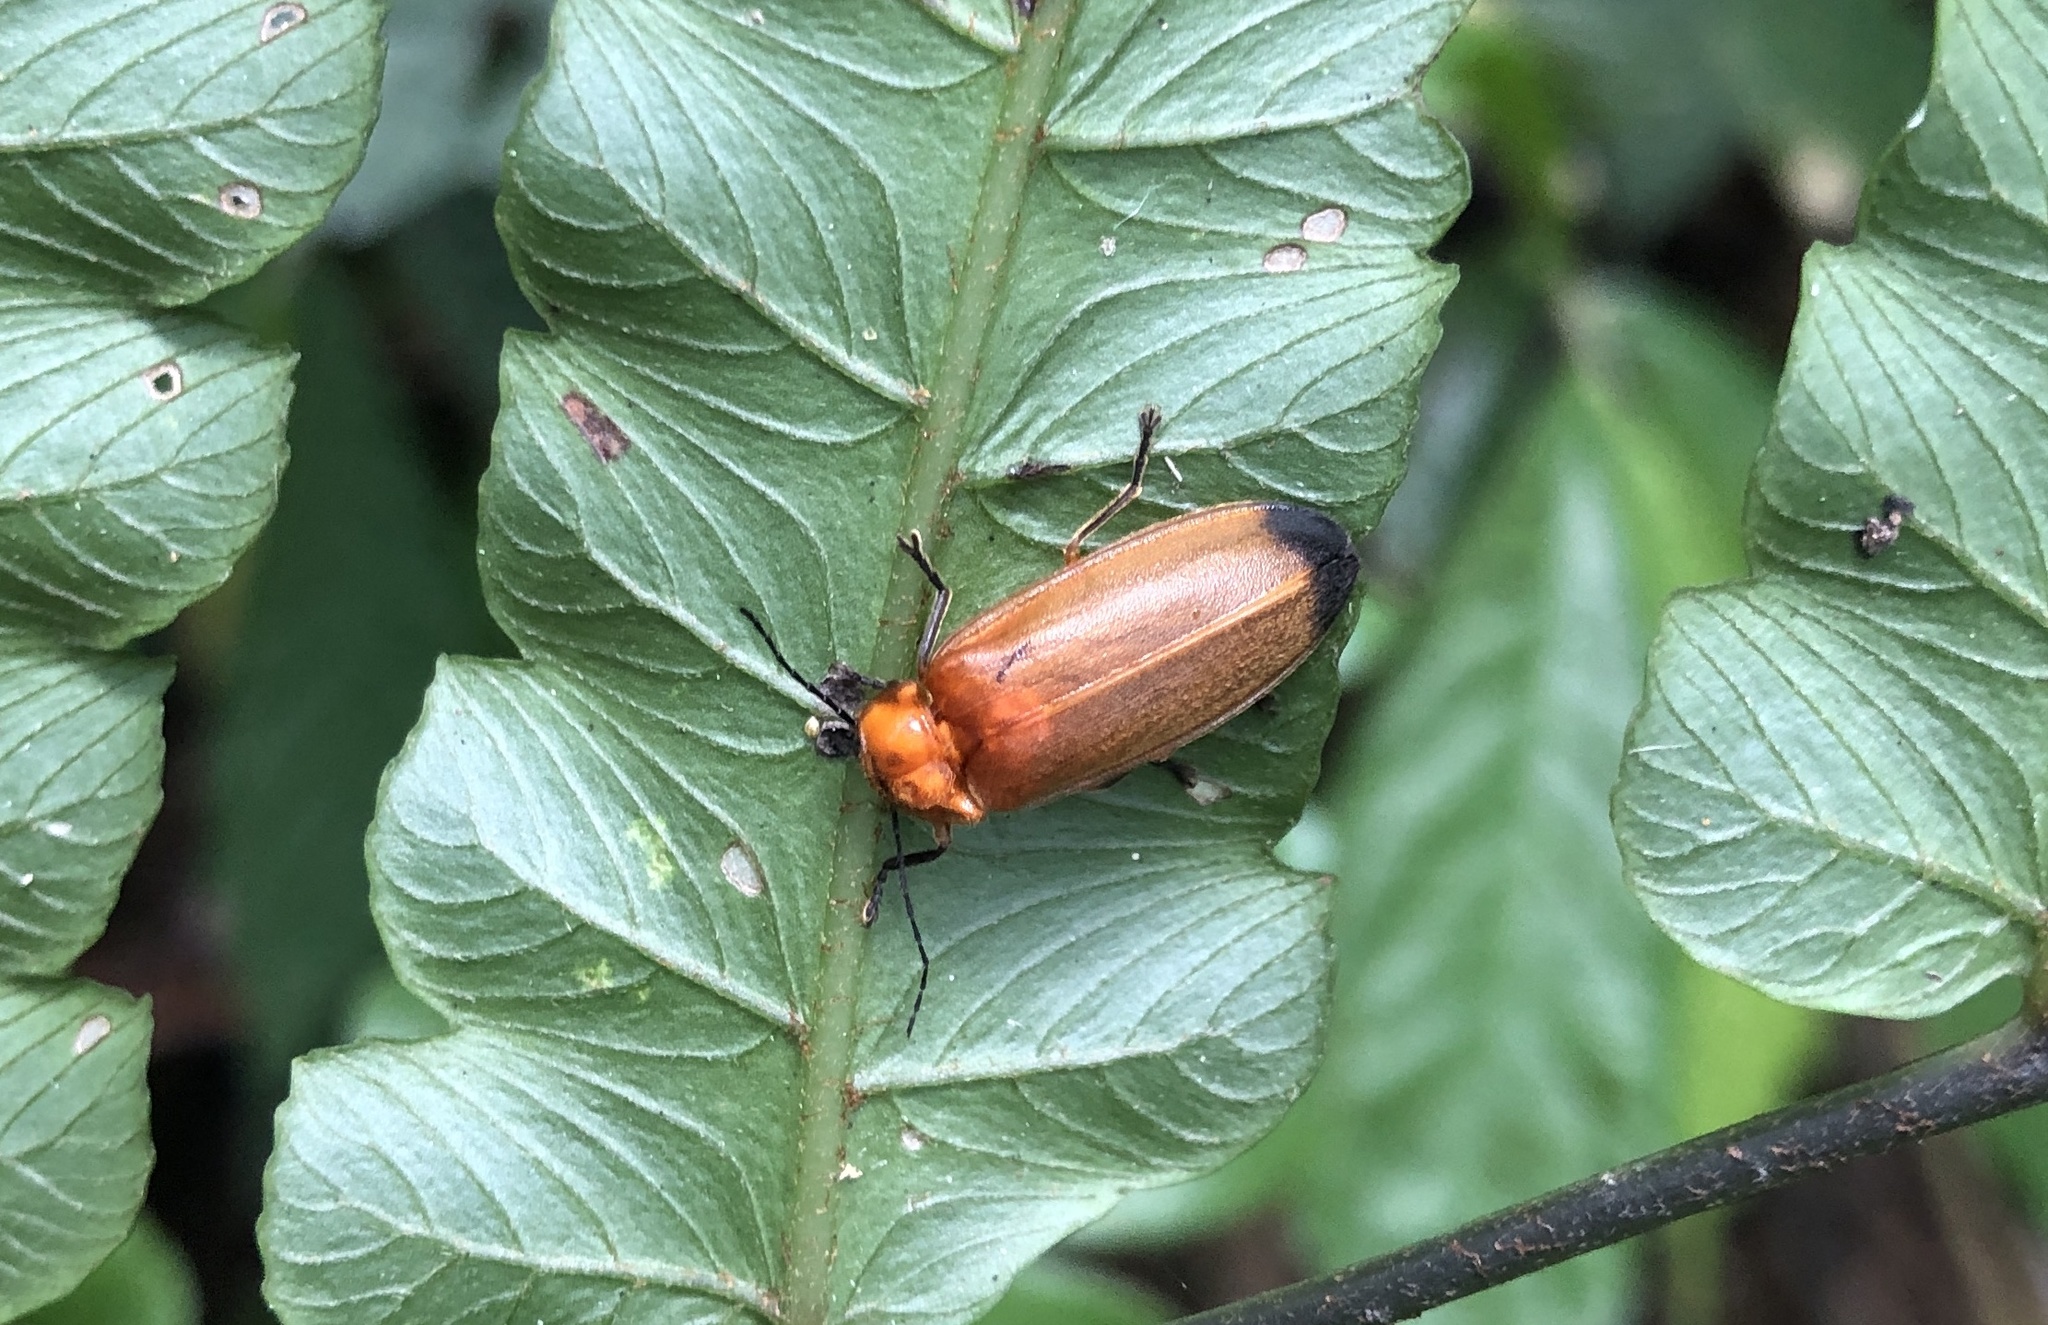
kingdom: Animalia
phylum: Arthropoda
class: Insecta
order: Coleoptera
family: Lampyridae
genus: Abscondita
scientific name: Abscondita anceyi
